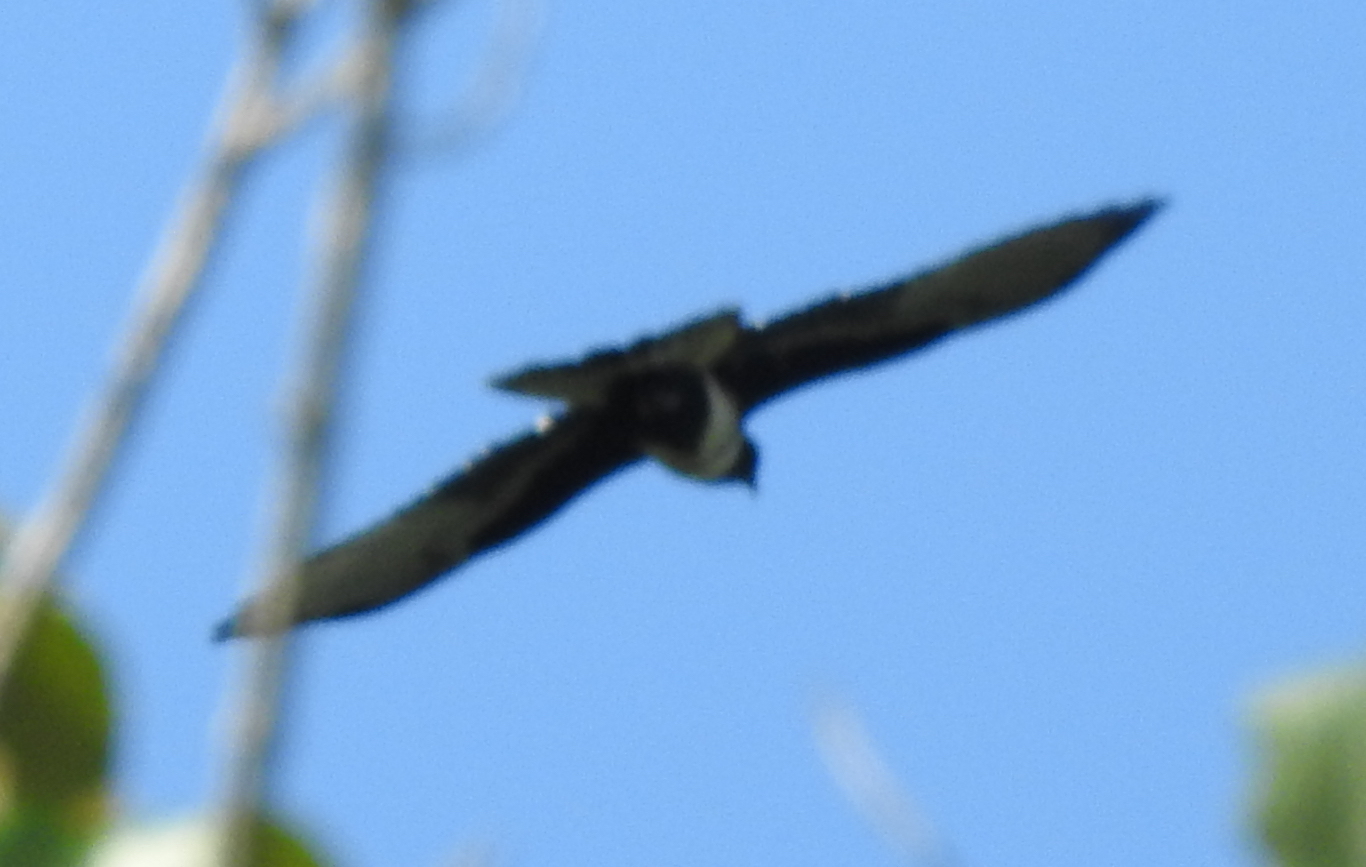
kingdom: Animalia
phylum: Chordata
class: Aves
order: Accipitriformes
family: Accipitridae
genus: Aviceda
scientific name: Aviceda leuphotes
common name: Black baza
